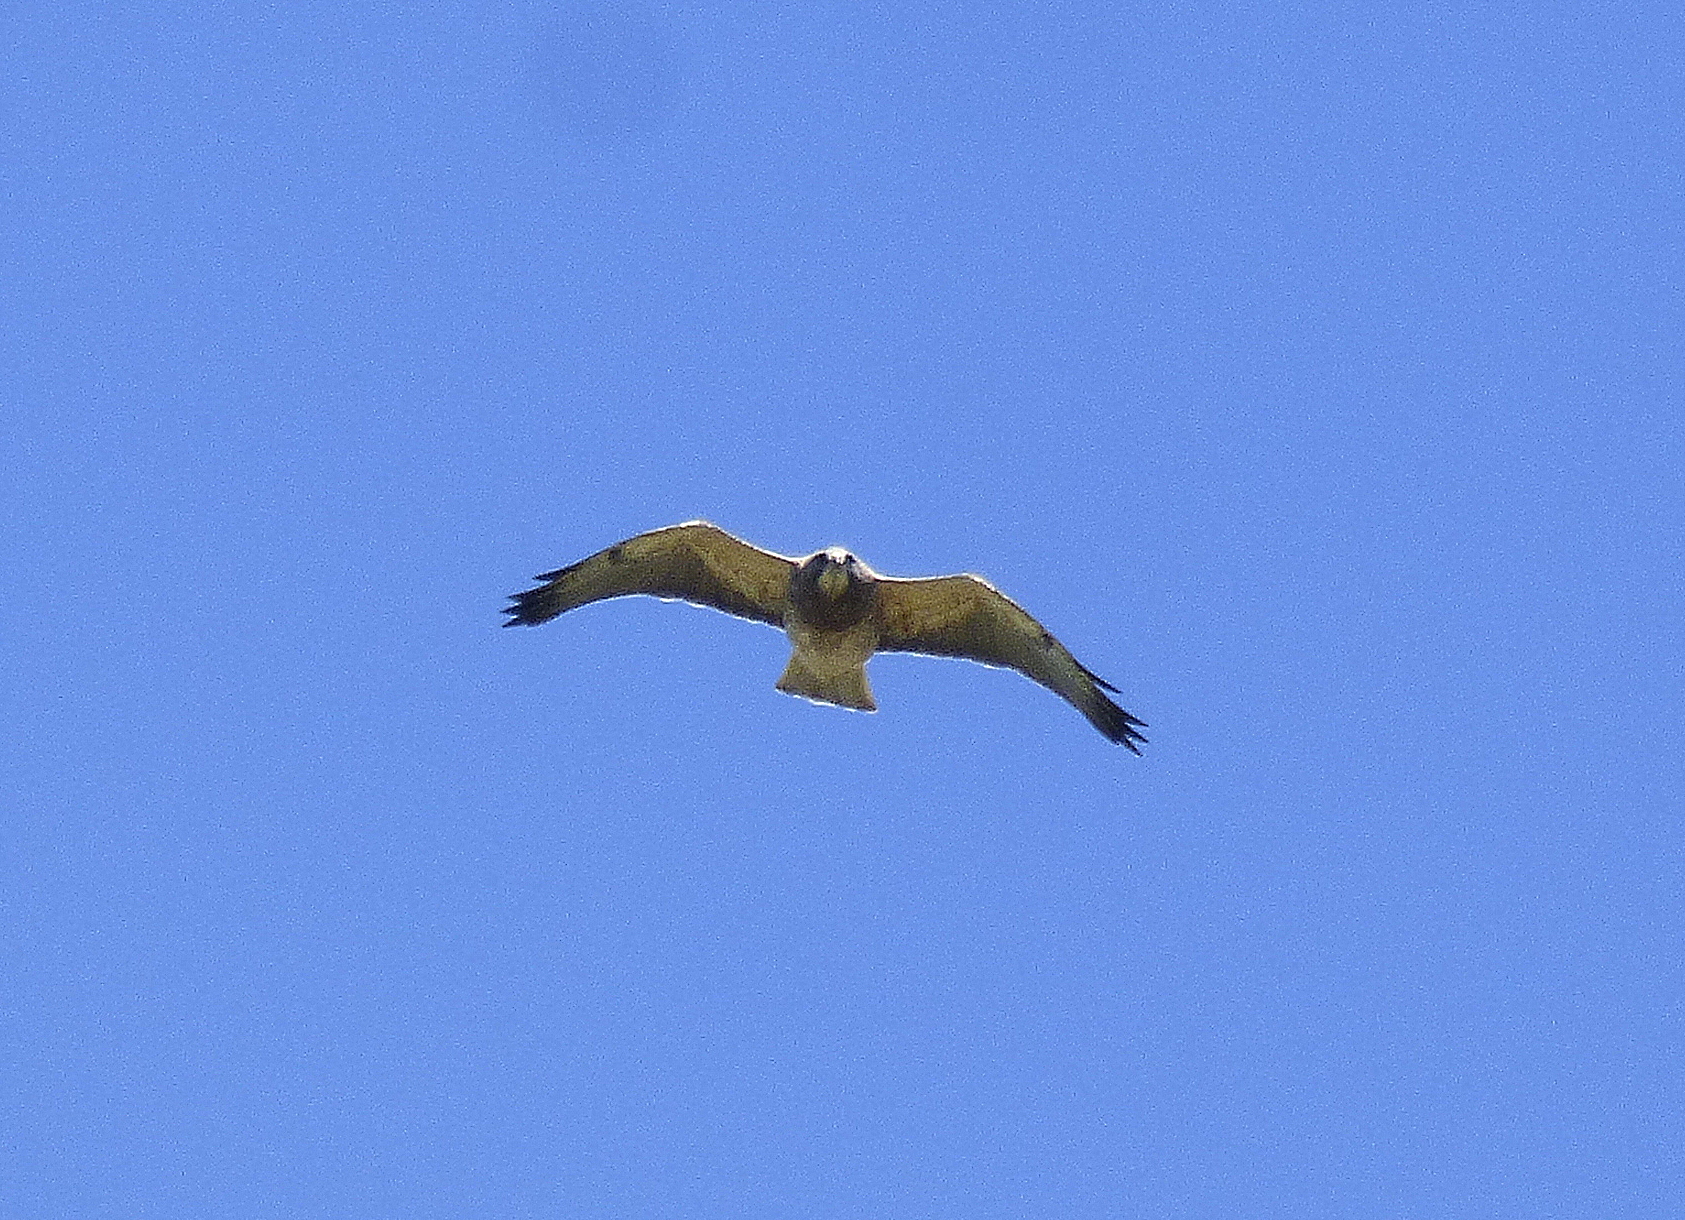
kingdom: Animalia
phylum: Chordata
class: Aves
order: Accipitriformes
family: Accipitridae
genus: Buteo
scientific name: Buteo swainsoni
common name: Swainson's hawk
